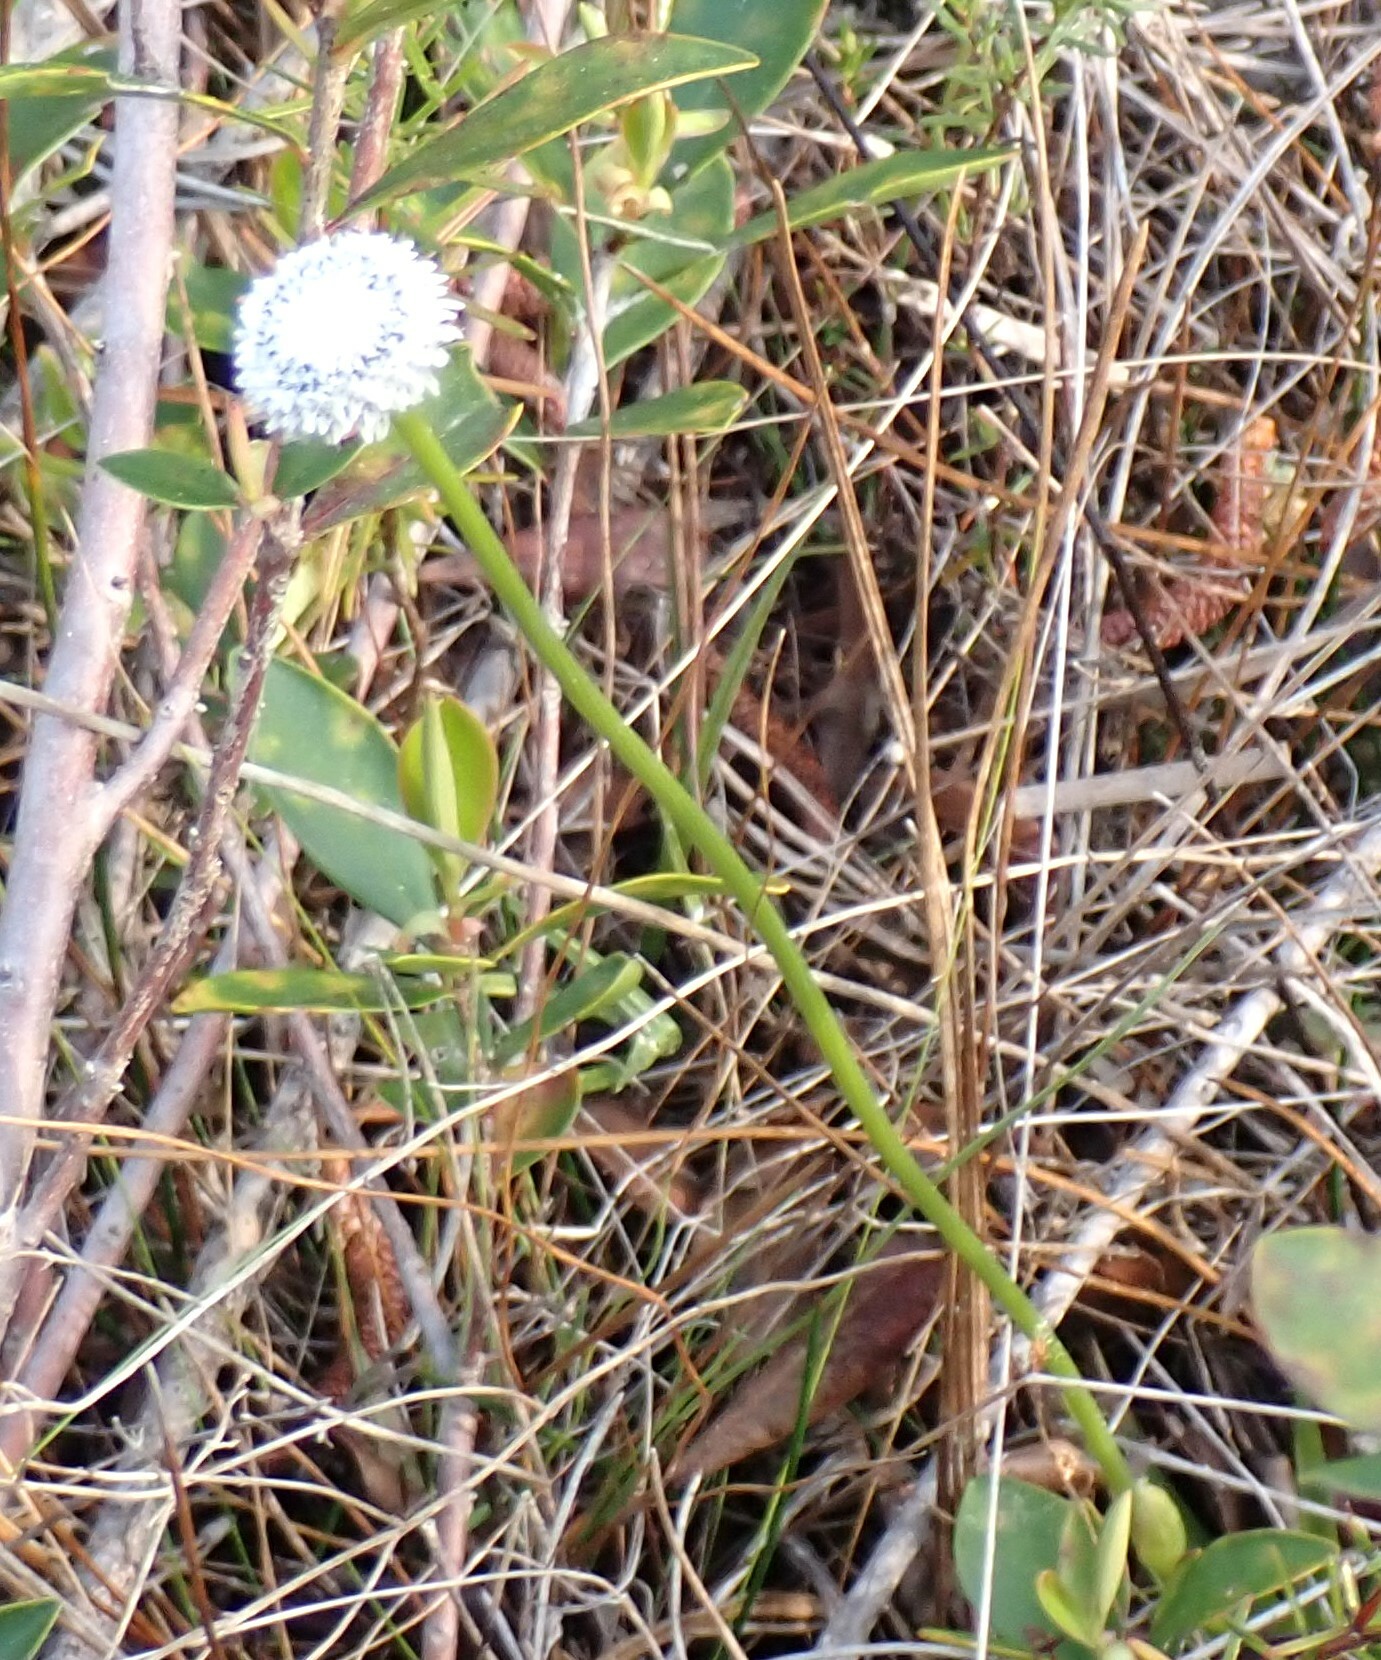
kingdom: Plantae
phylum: Tracheophyta
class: Liliopsida
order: Poales
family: Eriocaulaceae
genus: Eriocaulon
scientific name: Eriocaulon compressum
